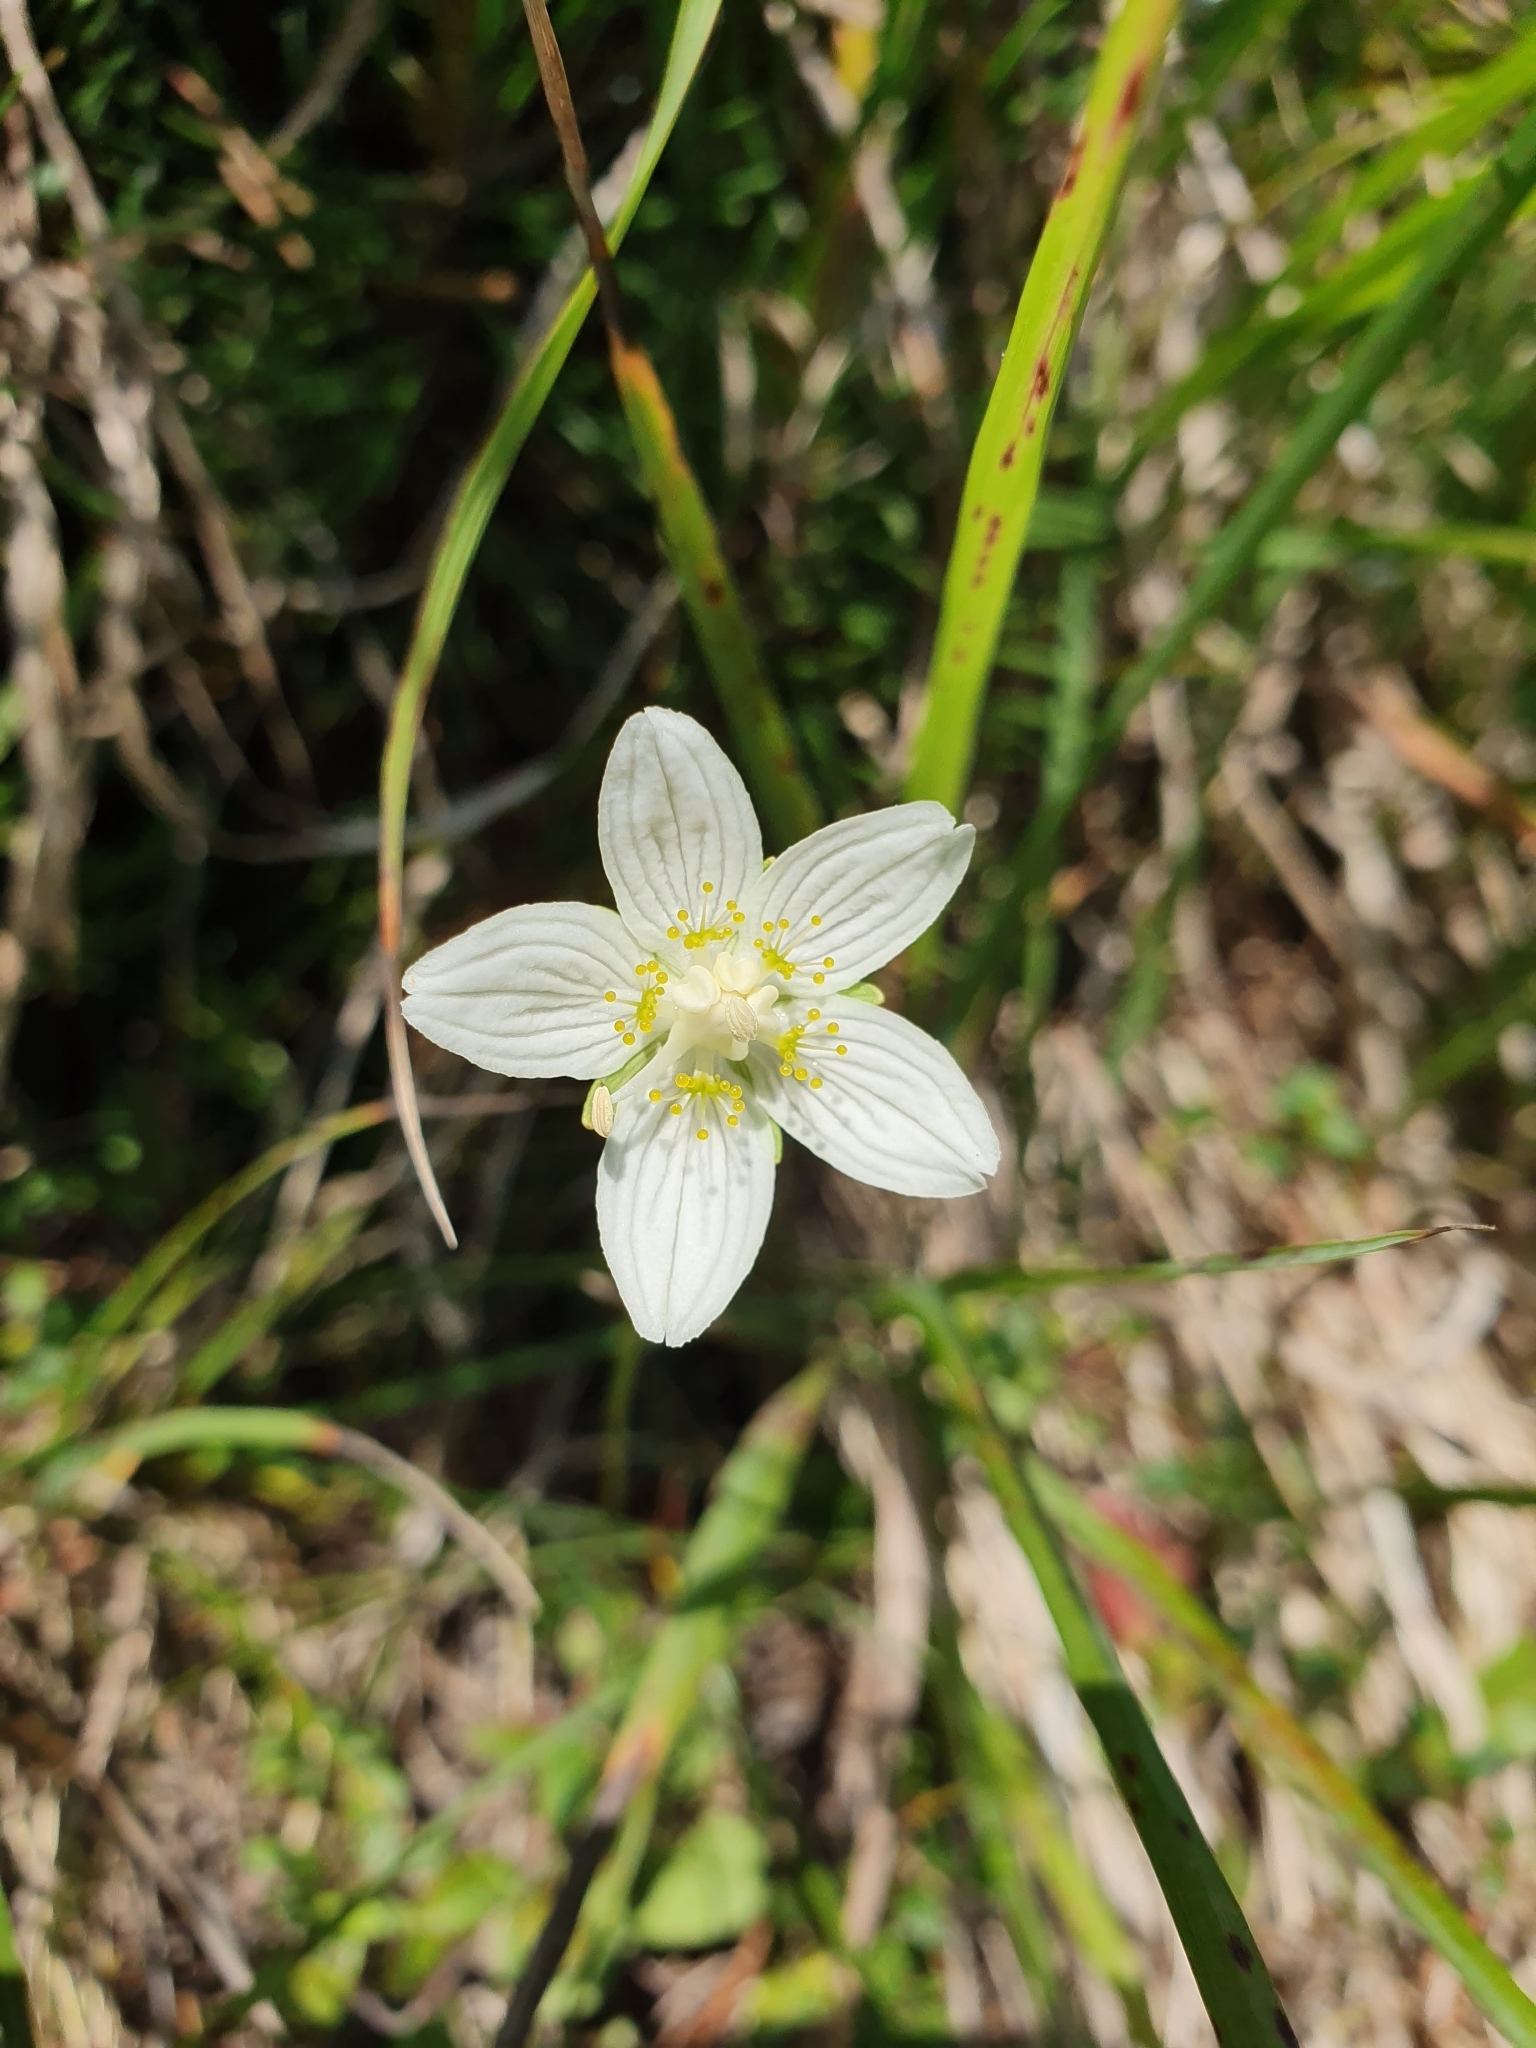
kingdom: Plantae
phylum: Tracheophyta
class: Magnoliopsida
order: Celastrales
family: Parnassiaceae
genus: Parnassia
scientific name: Parnassia palustris
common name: Grass-of-parnassus
